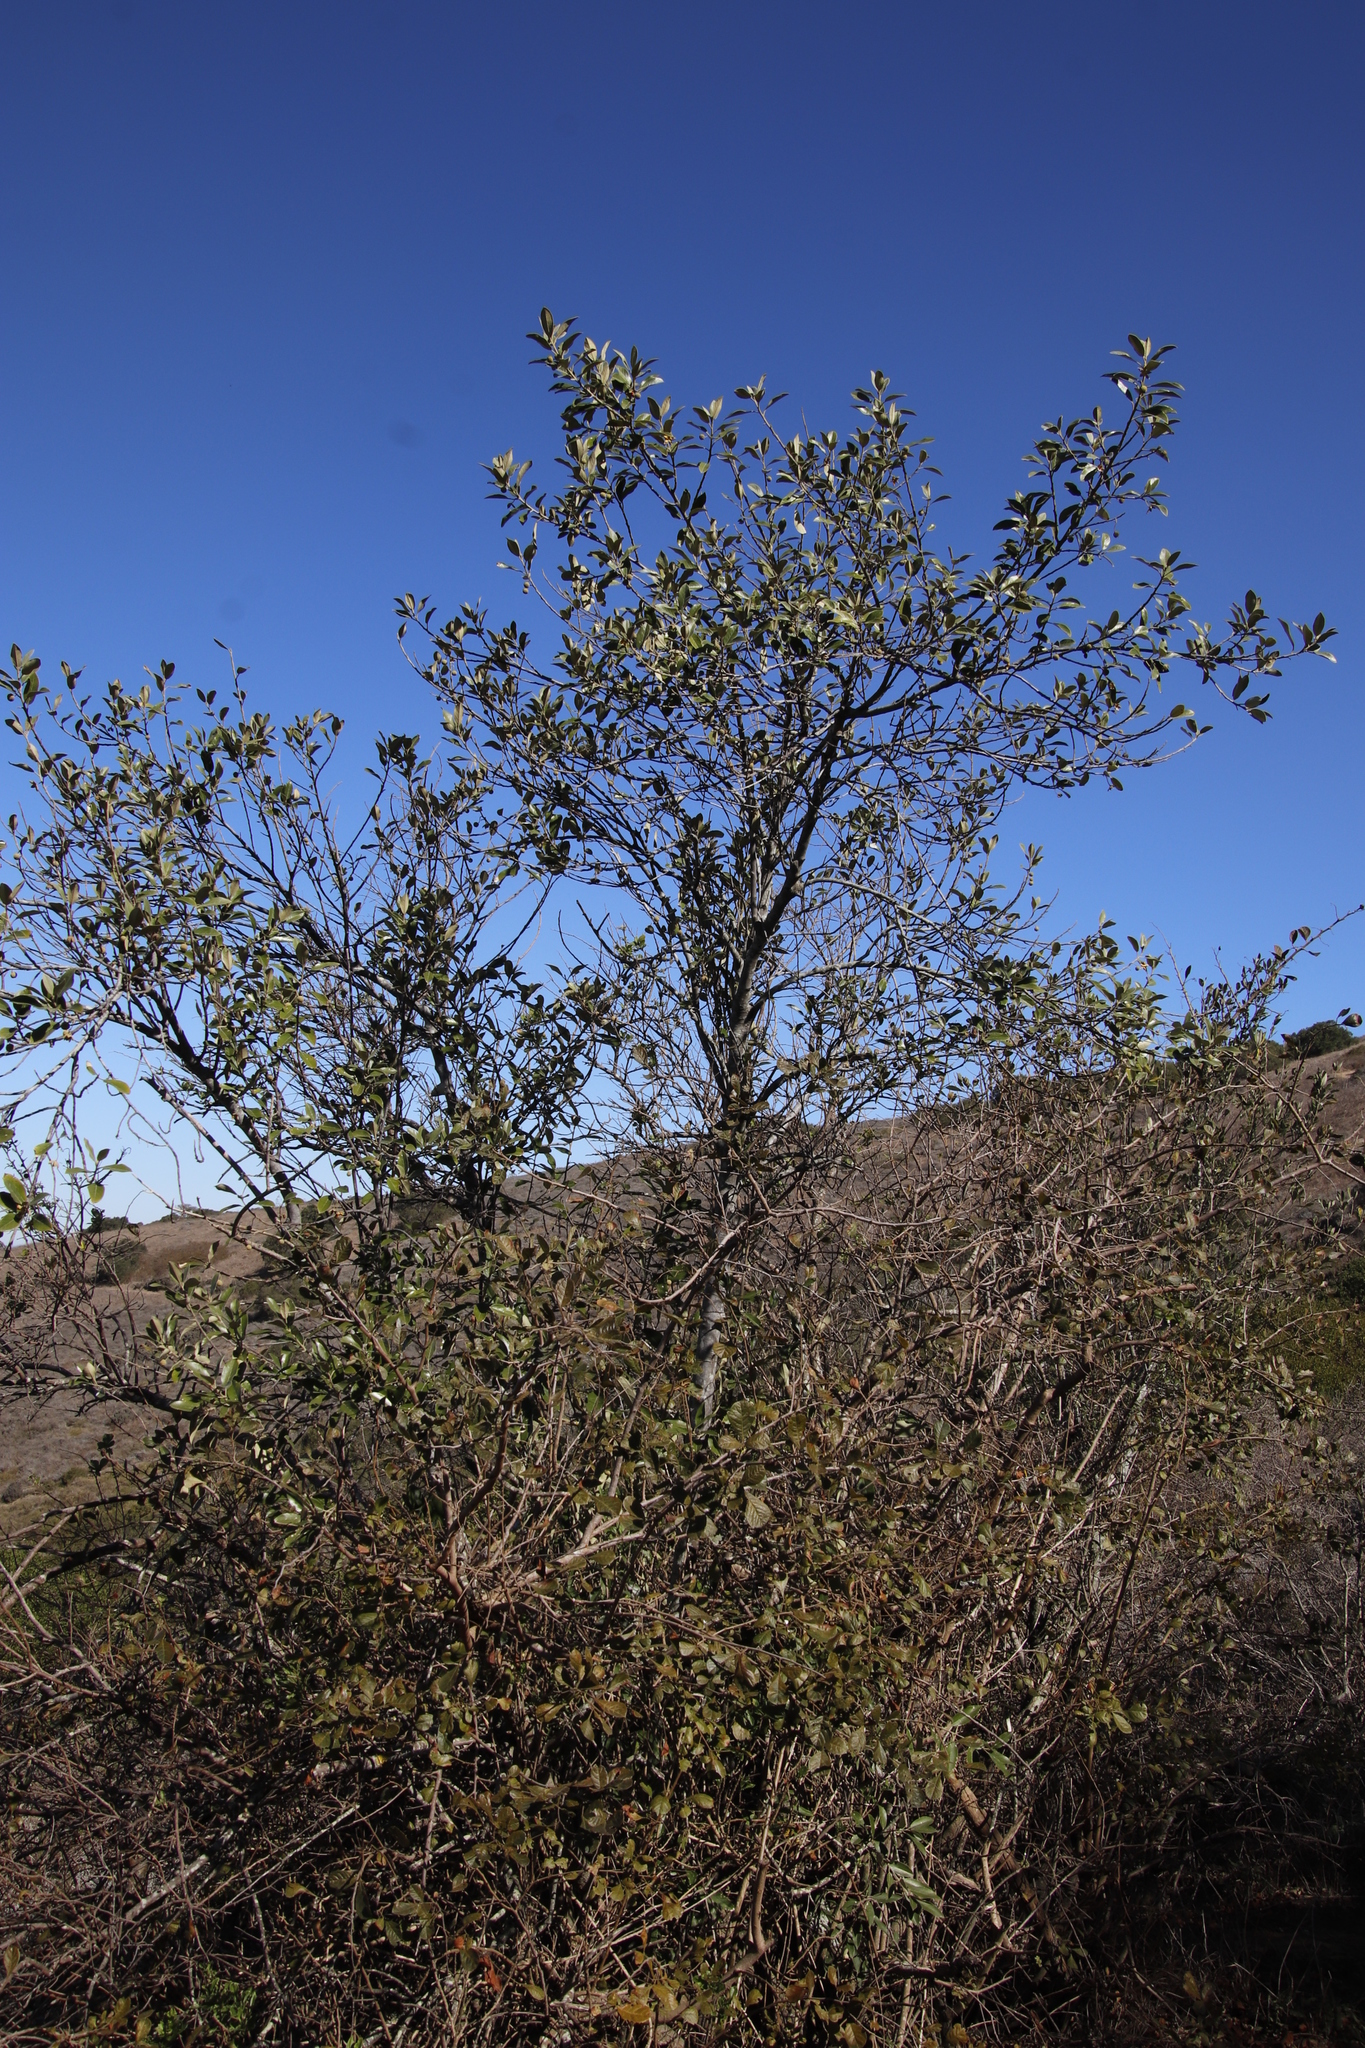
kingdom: Plantae
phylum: Tracheophyta
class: Magnoliopsida
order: Malpighiales
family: Achariaceae
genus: Kiggelaria
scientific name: Kiggelaria africana
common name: Wild peach
